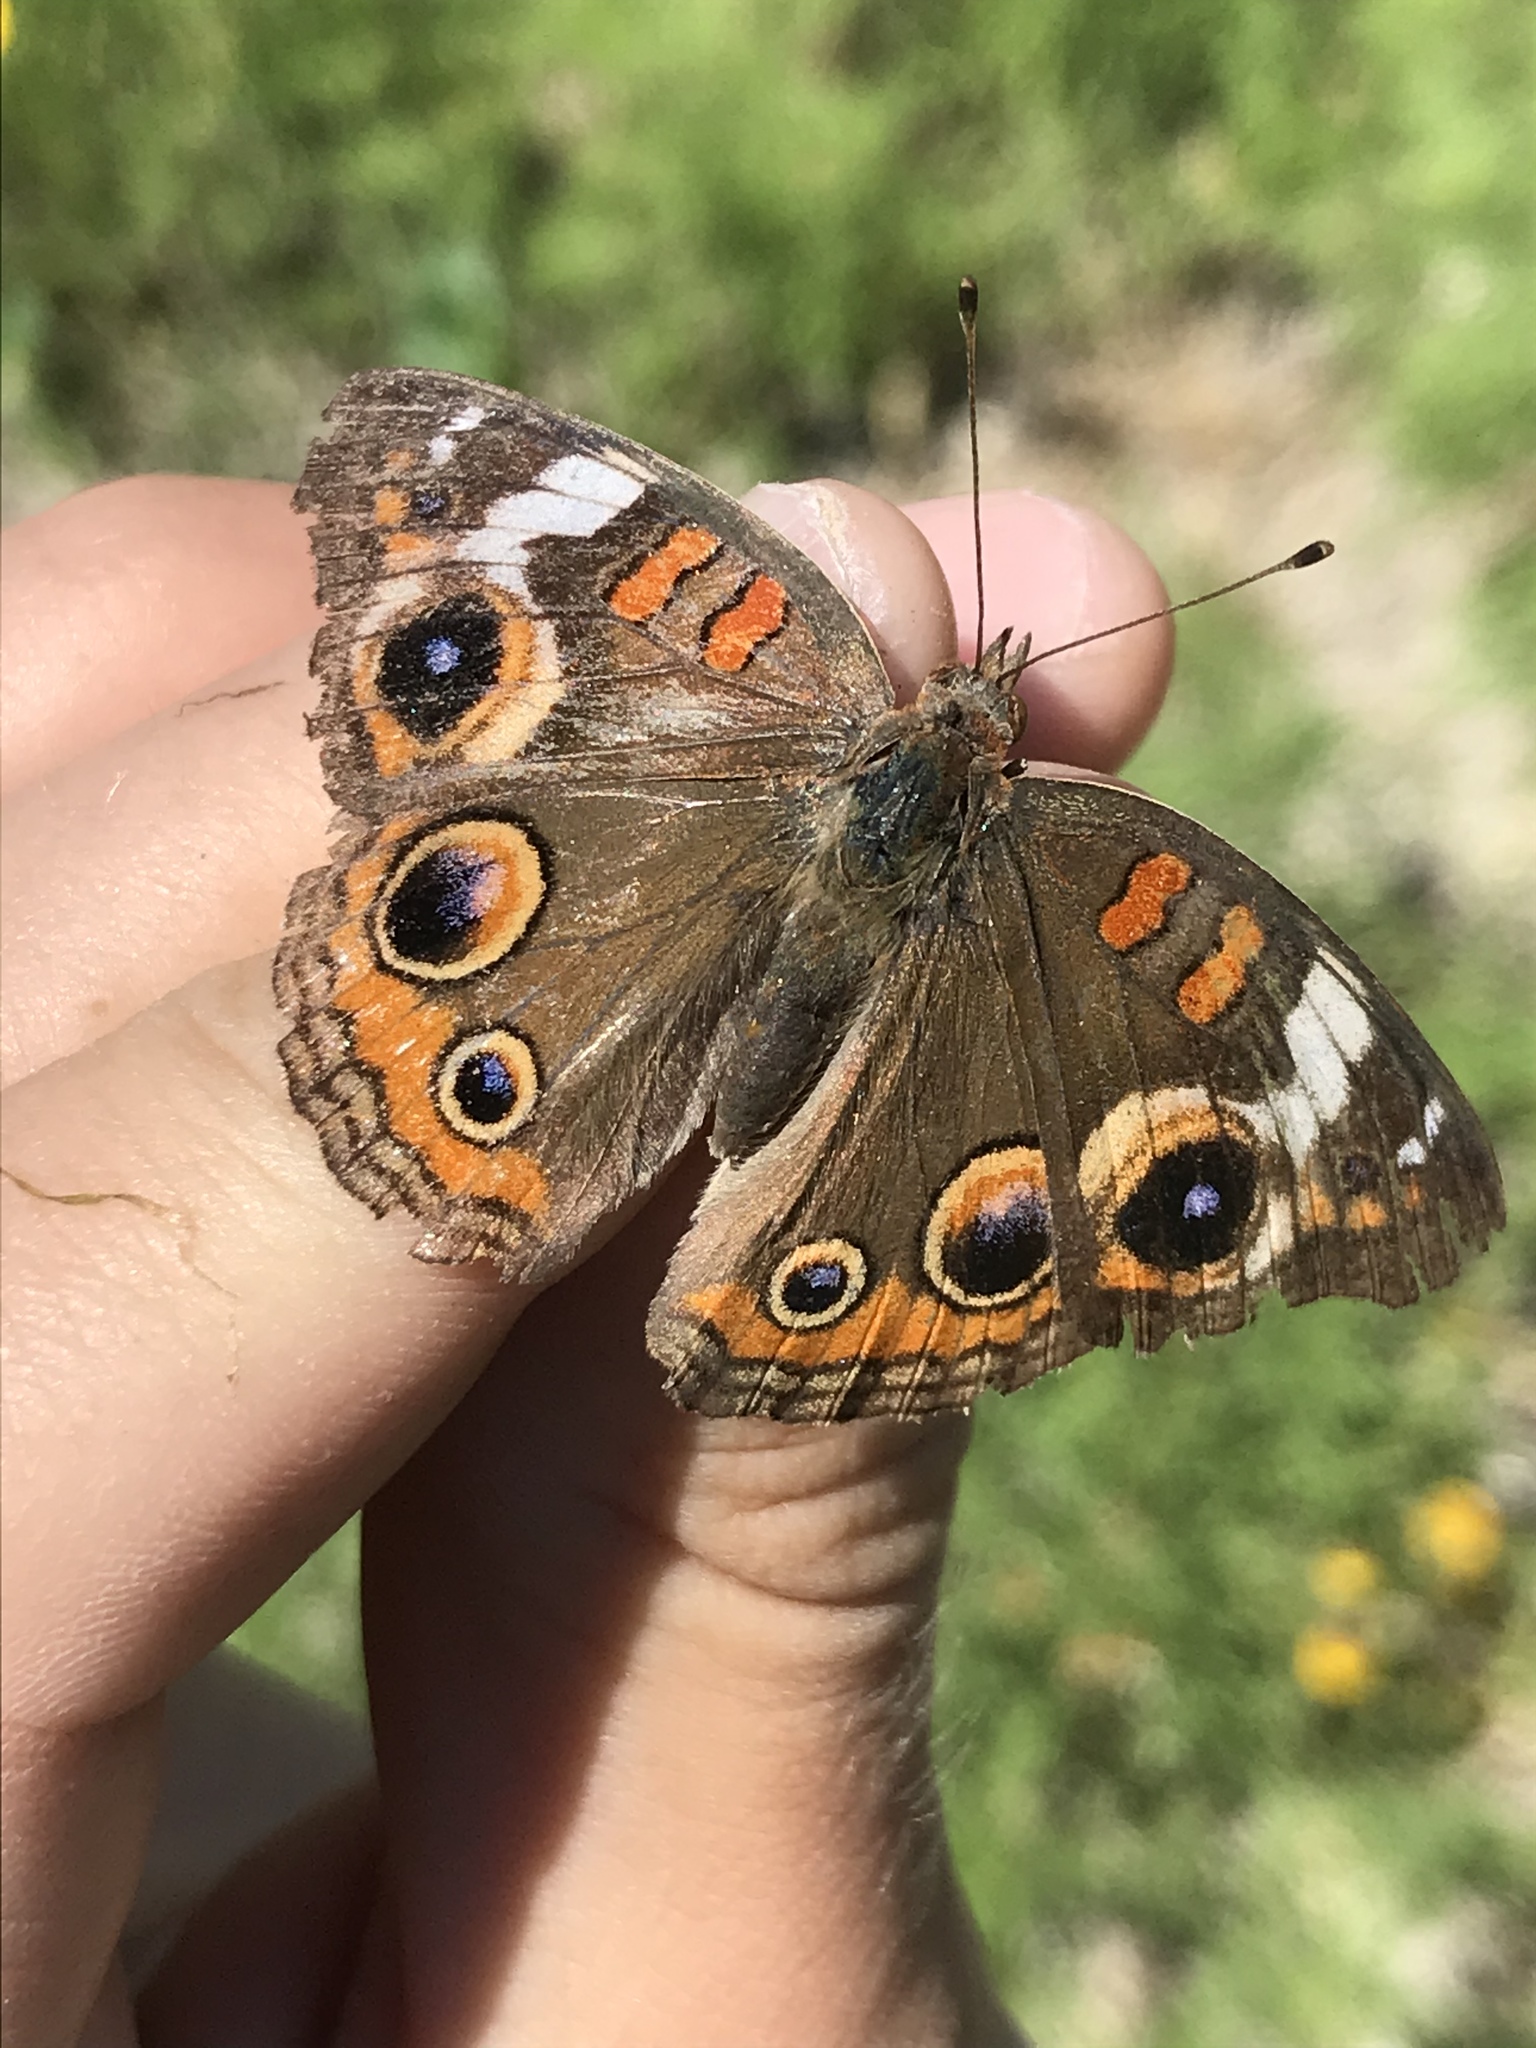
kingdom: Animalia
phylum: Arthropoda
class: Insecta
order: Lepidoptera
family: Nymphalidae
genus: Junonia
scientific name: Junonia coenia
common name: Common buckeye
